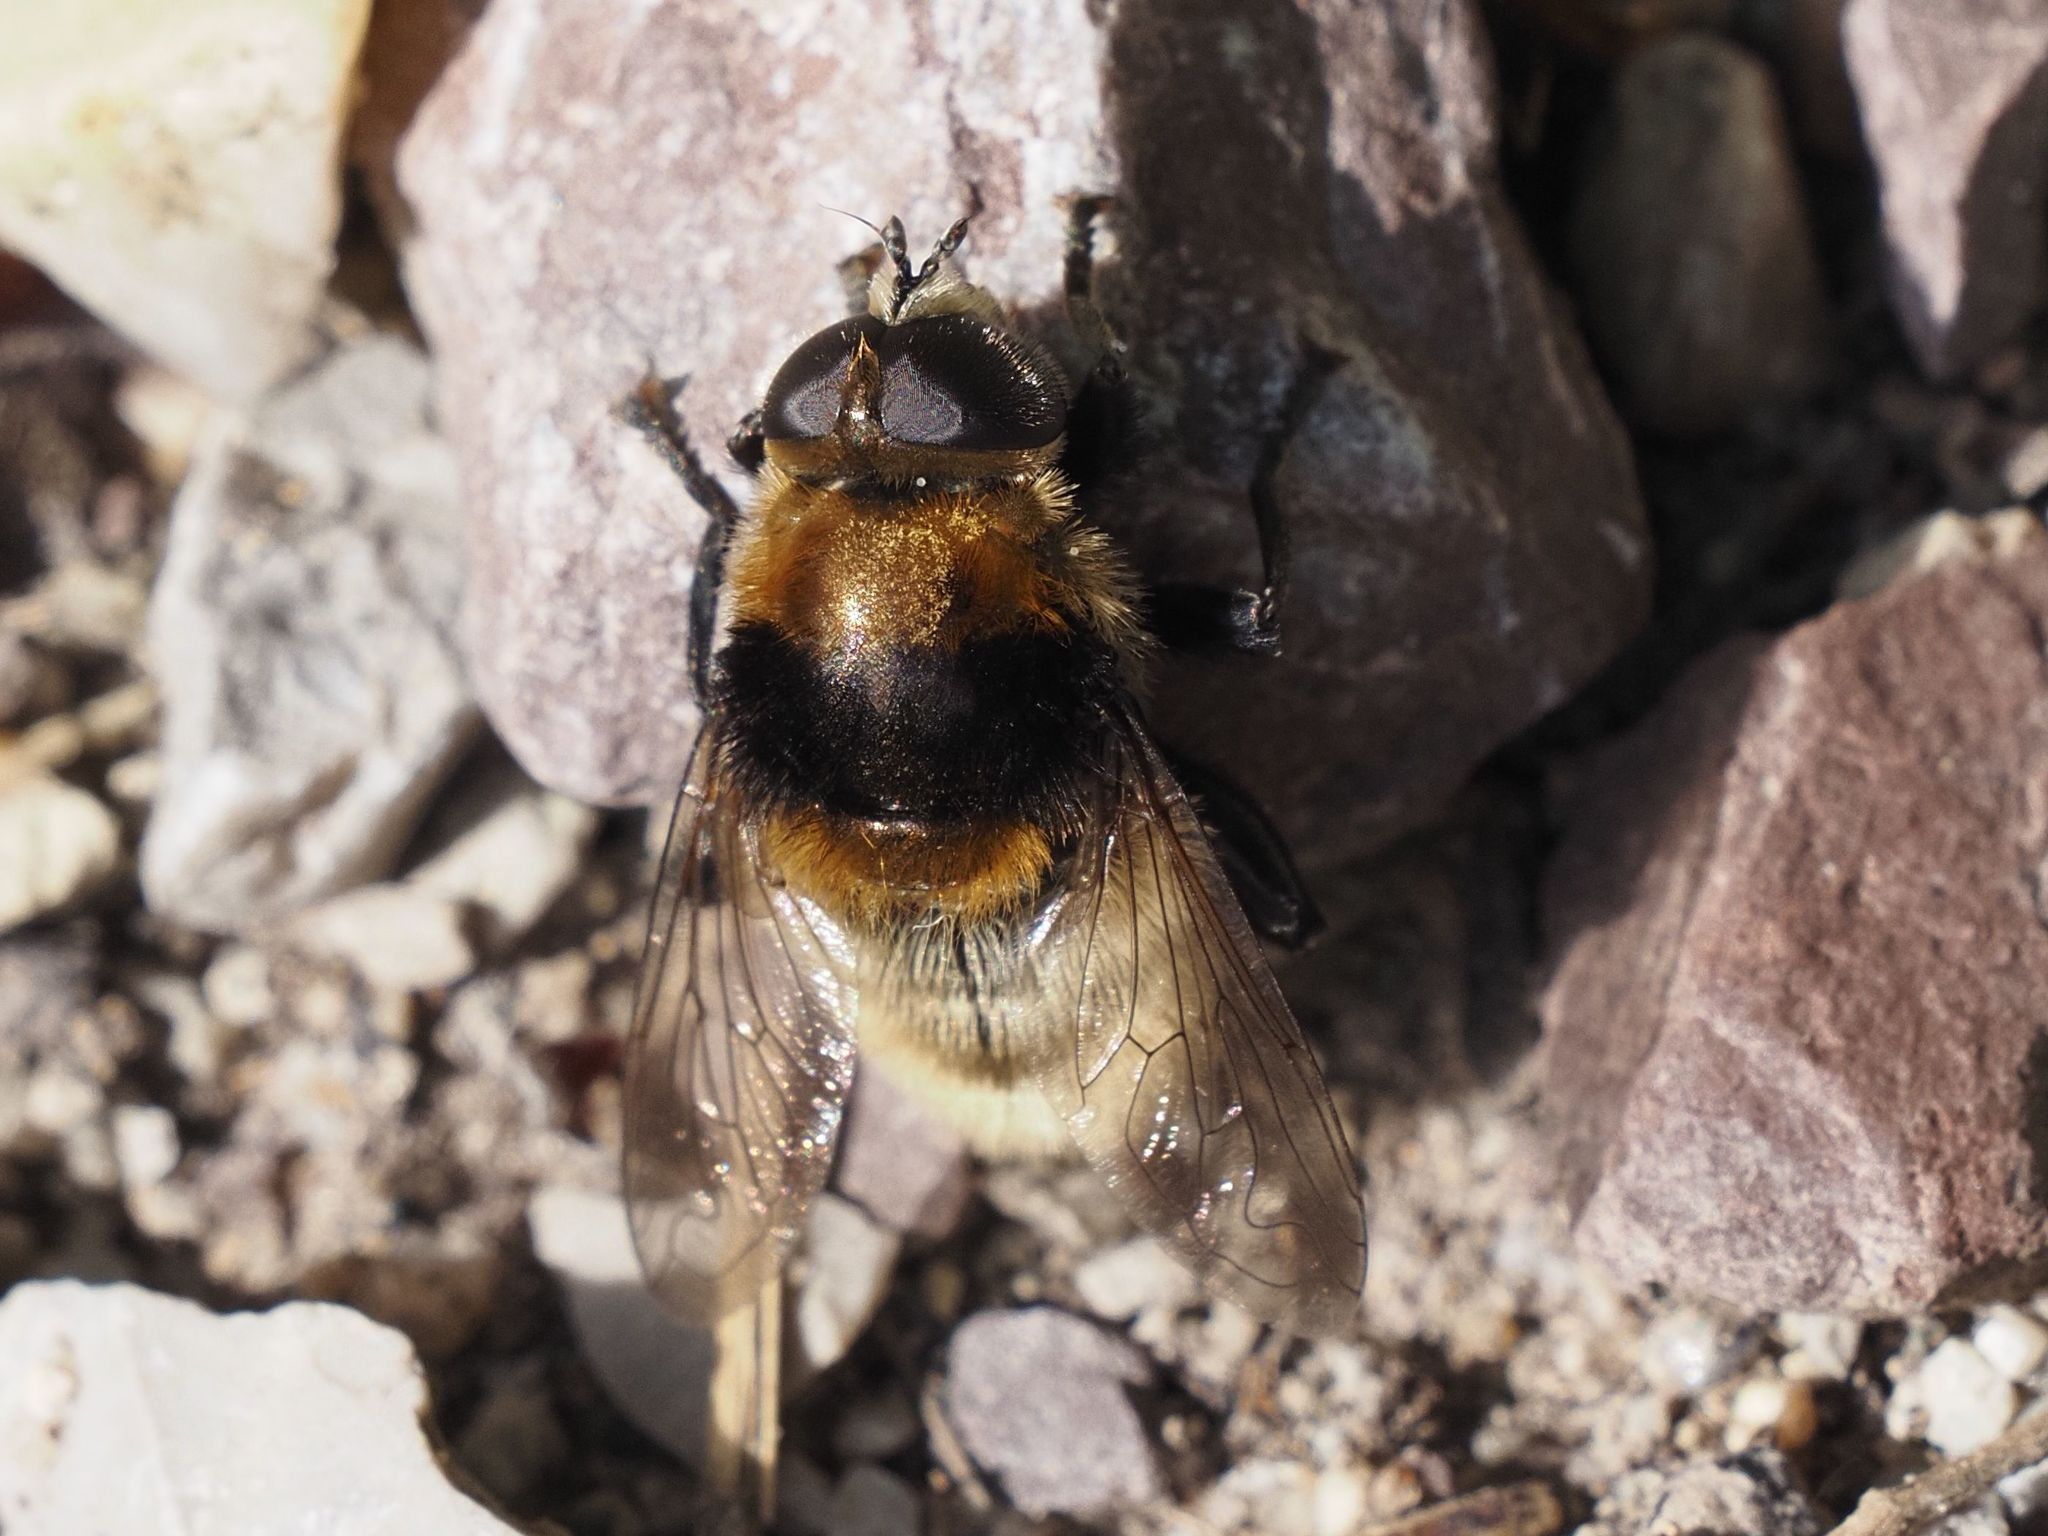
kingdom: Animalia
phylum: Arthropoda
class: Insecta
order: Diptera
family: Syrphidae
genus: Merodon
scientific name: Merodon equestris
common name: Greater bulb-fly
